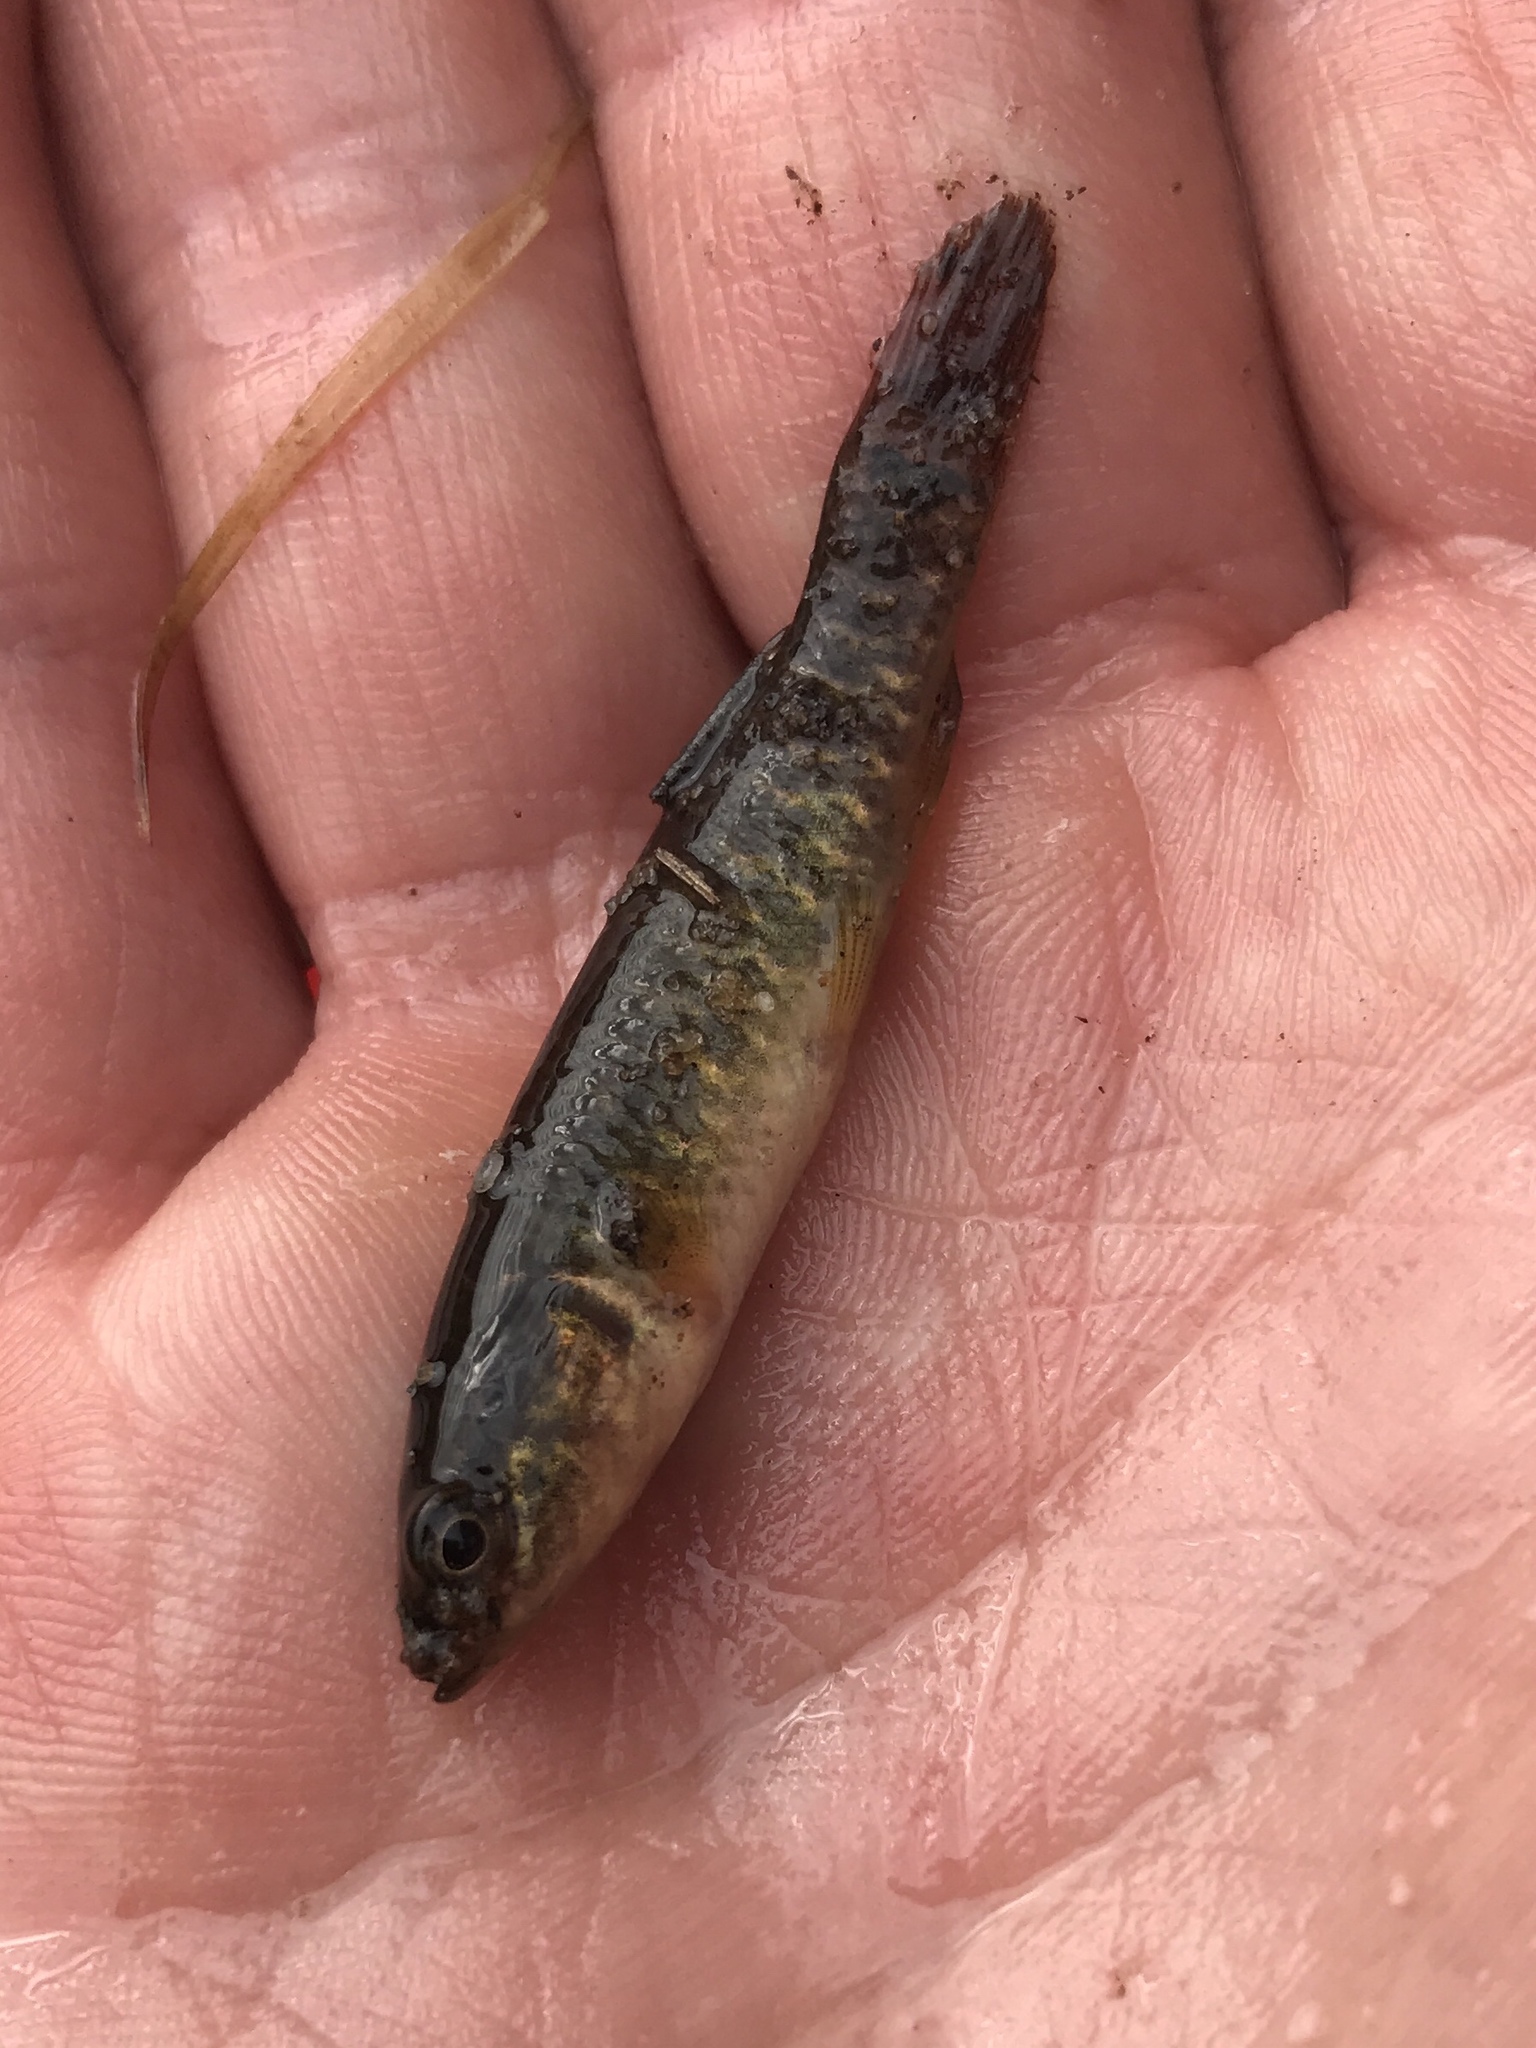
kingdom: Animalia
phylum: Chordata
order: Esociformes
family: Umbridae
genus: Umbra
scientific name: Umbra limi
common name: Central mudminnow
